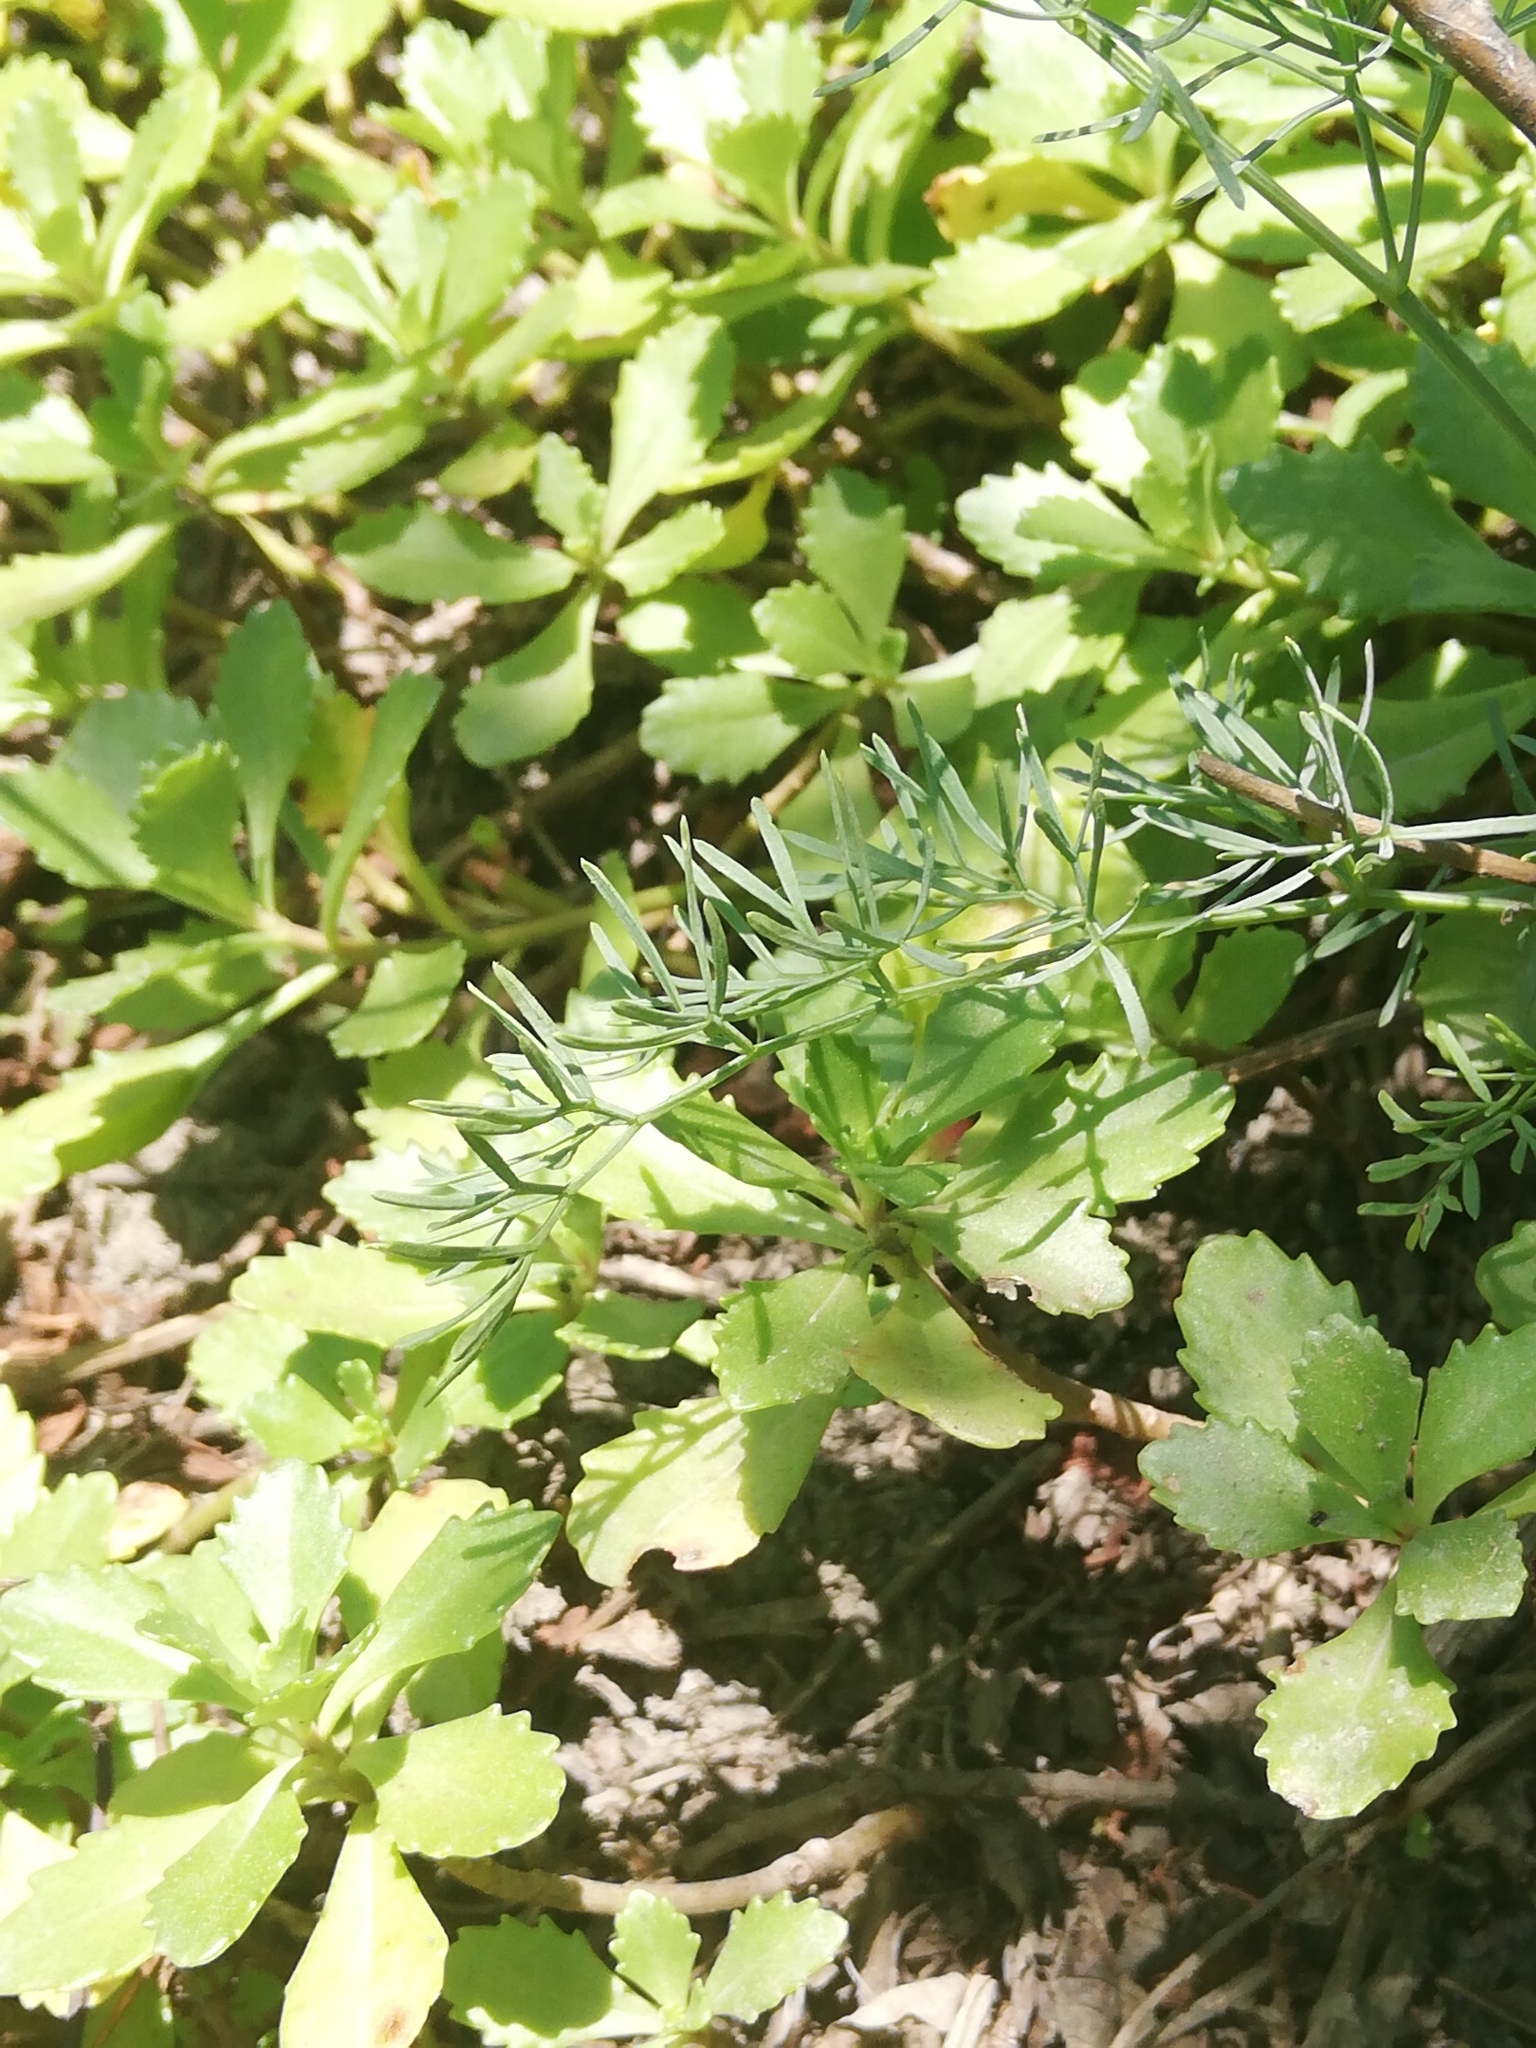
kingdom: Plantae
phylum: Tracheophyta
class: Magnoliopsida
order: Saxifragales
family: Crassulaceae
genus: Phedimus
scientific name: Phedimus hybridus
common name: Hybrid stonecrop
